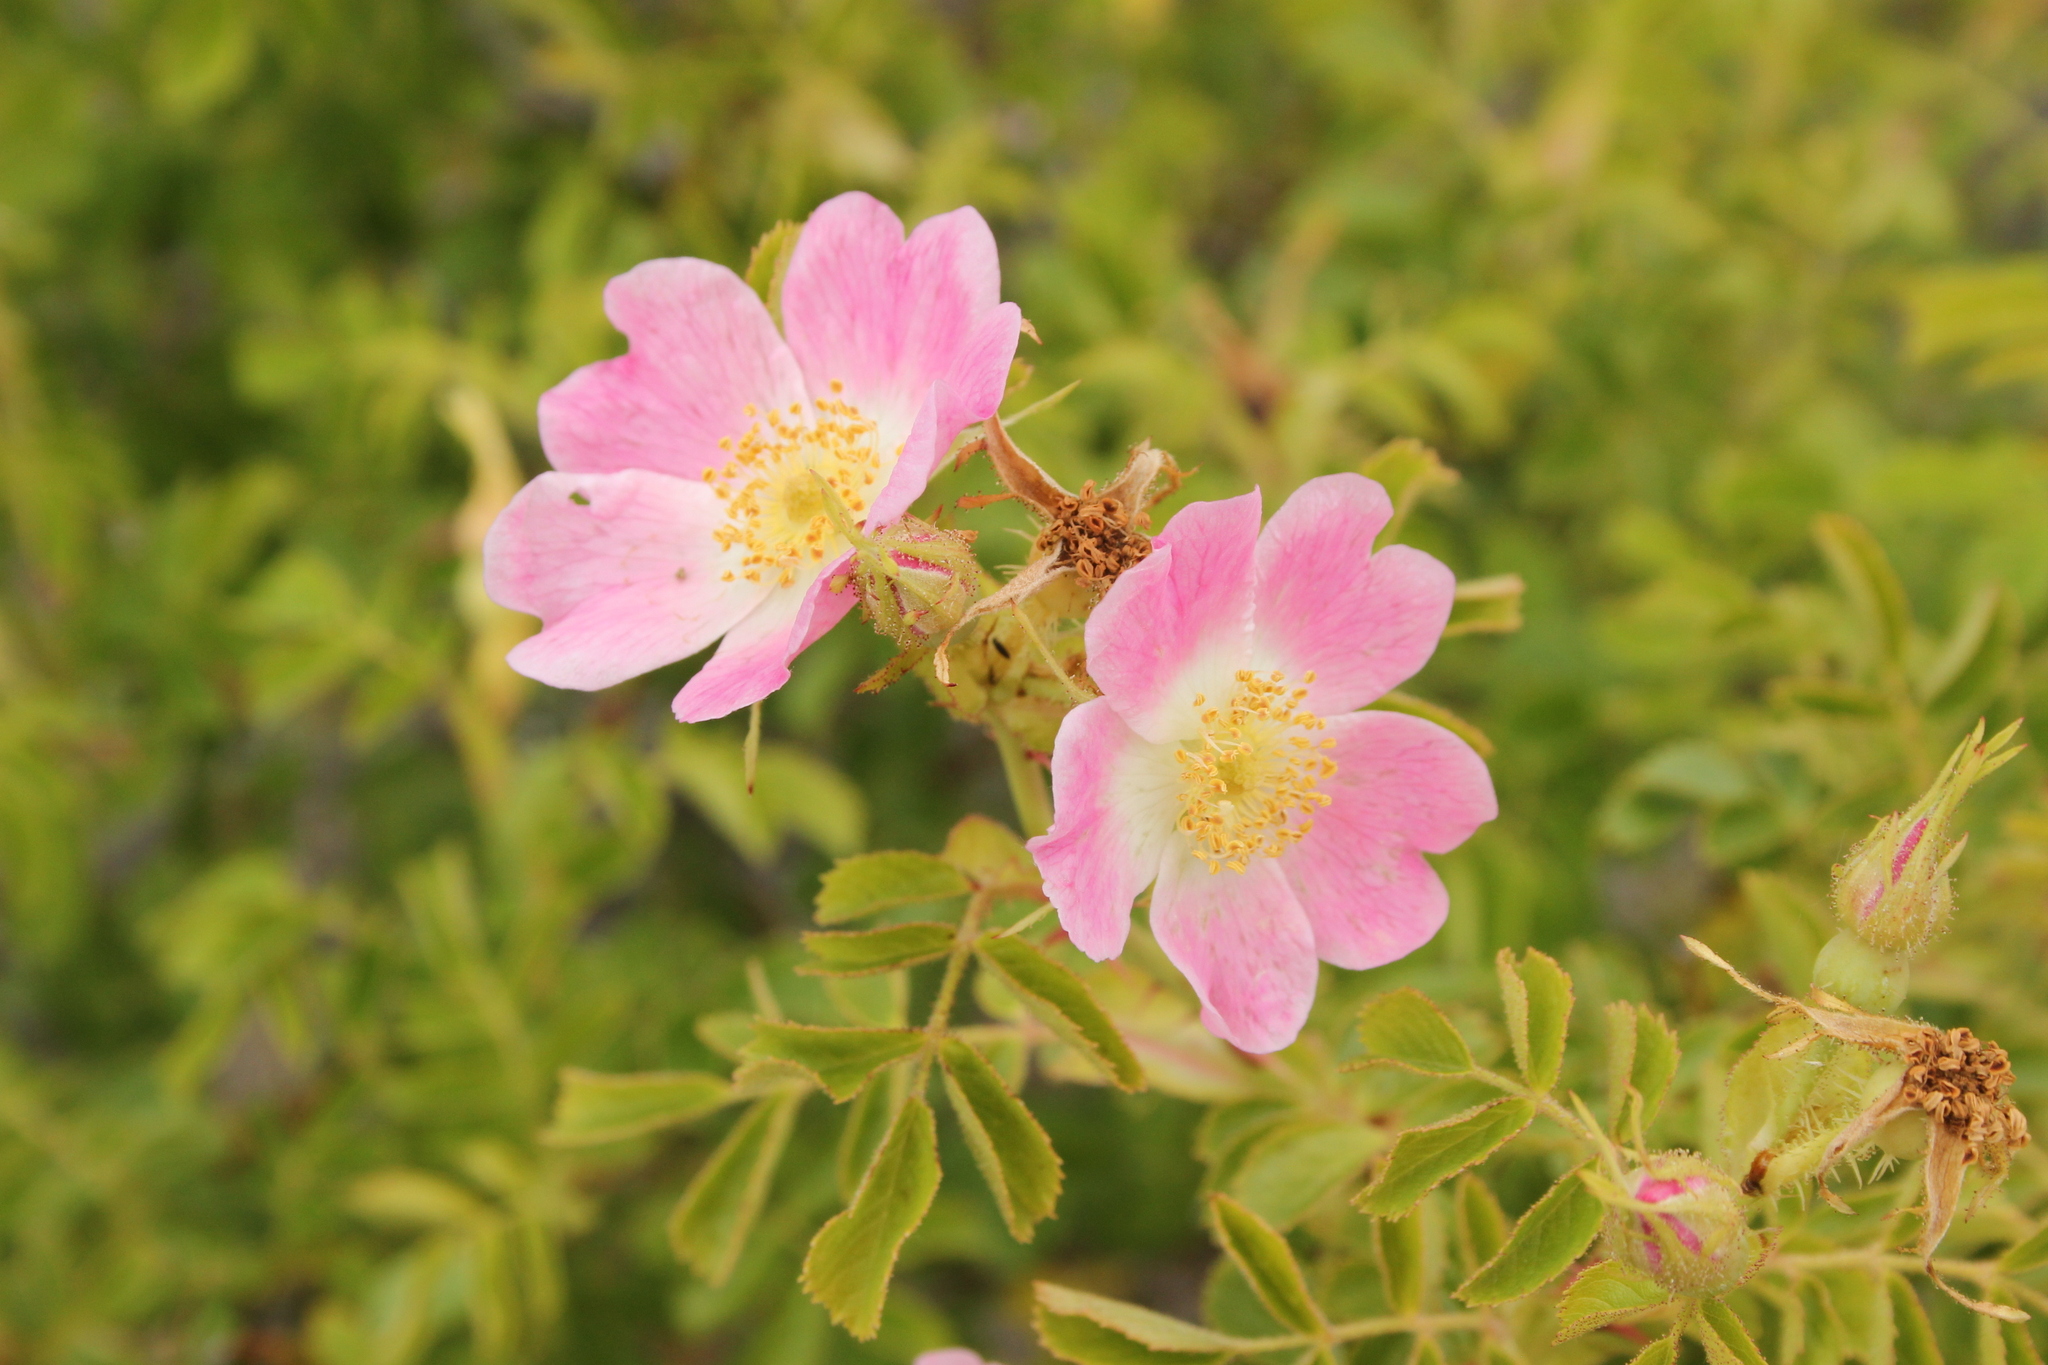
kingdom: Plantae
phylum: Tracheophyta
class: Magnoliopsida
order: Rosales
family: Rosaceae
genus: Rosa
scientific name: Rosa rubiginosa
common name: Sweet-briar
